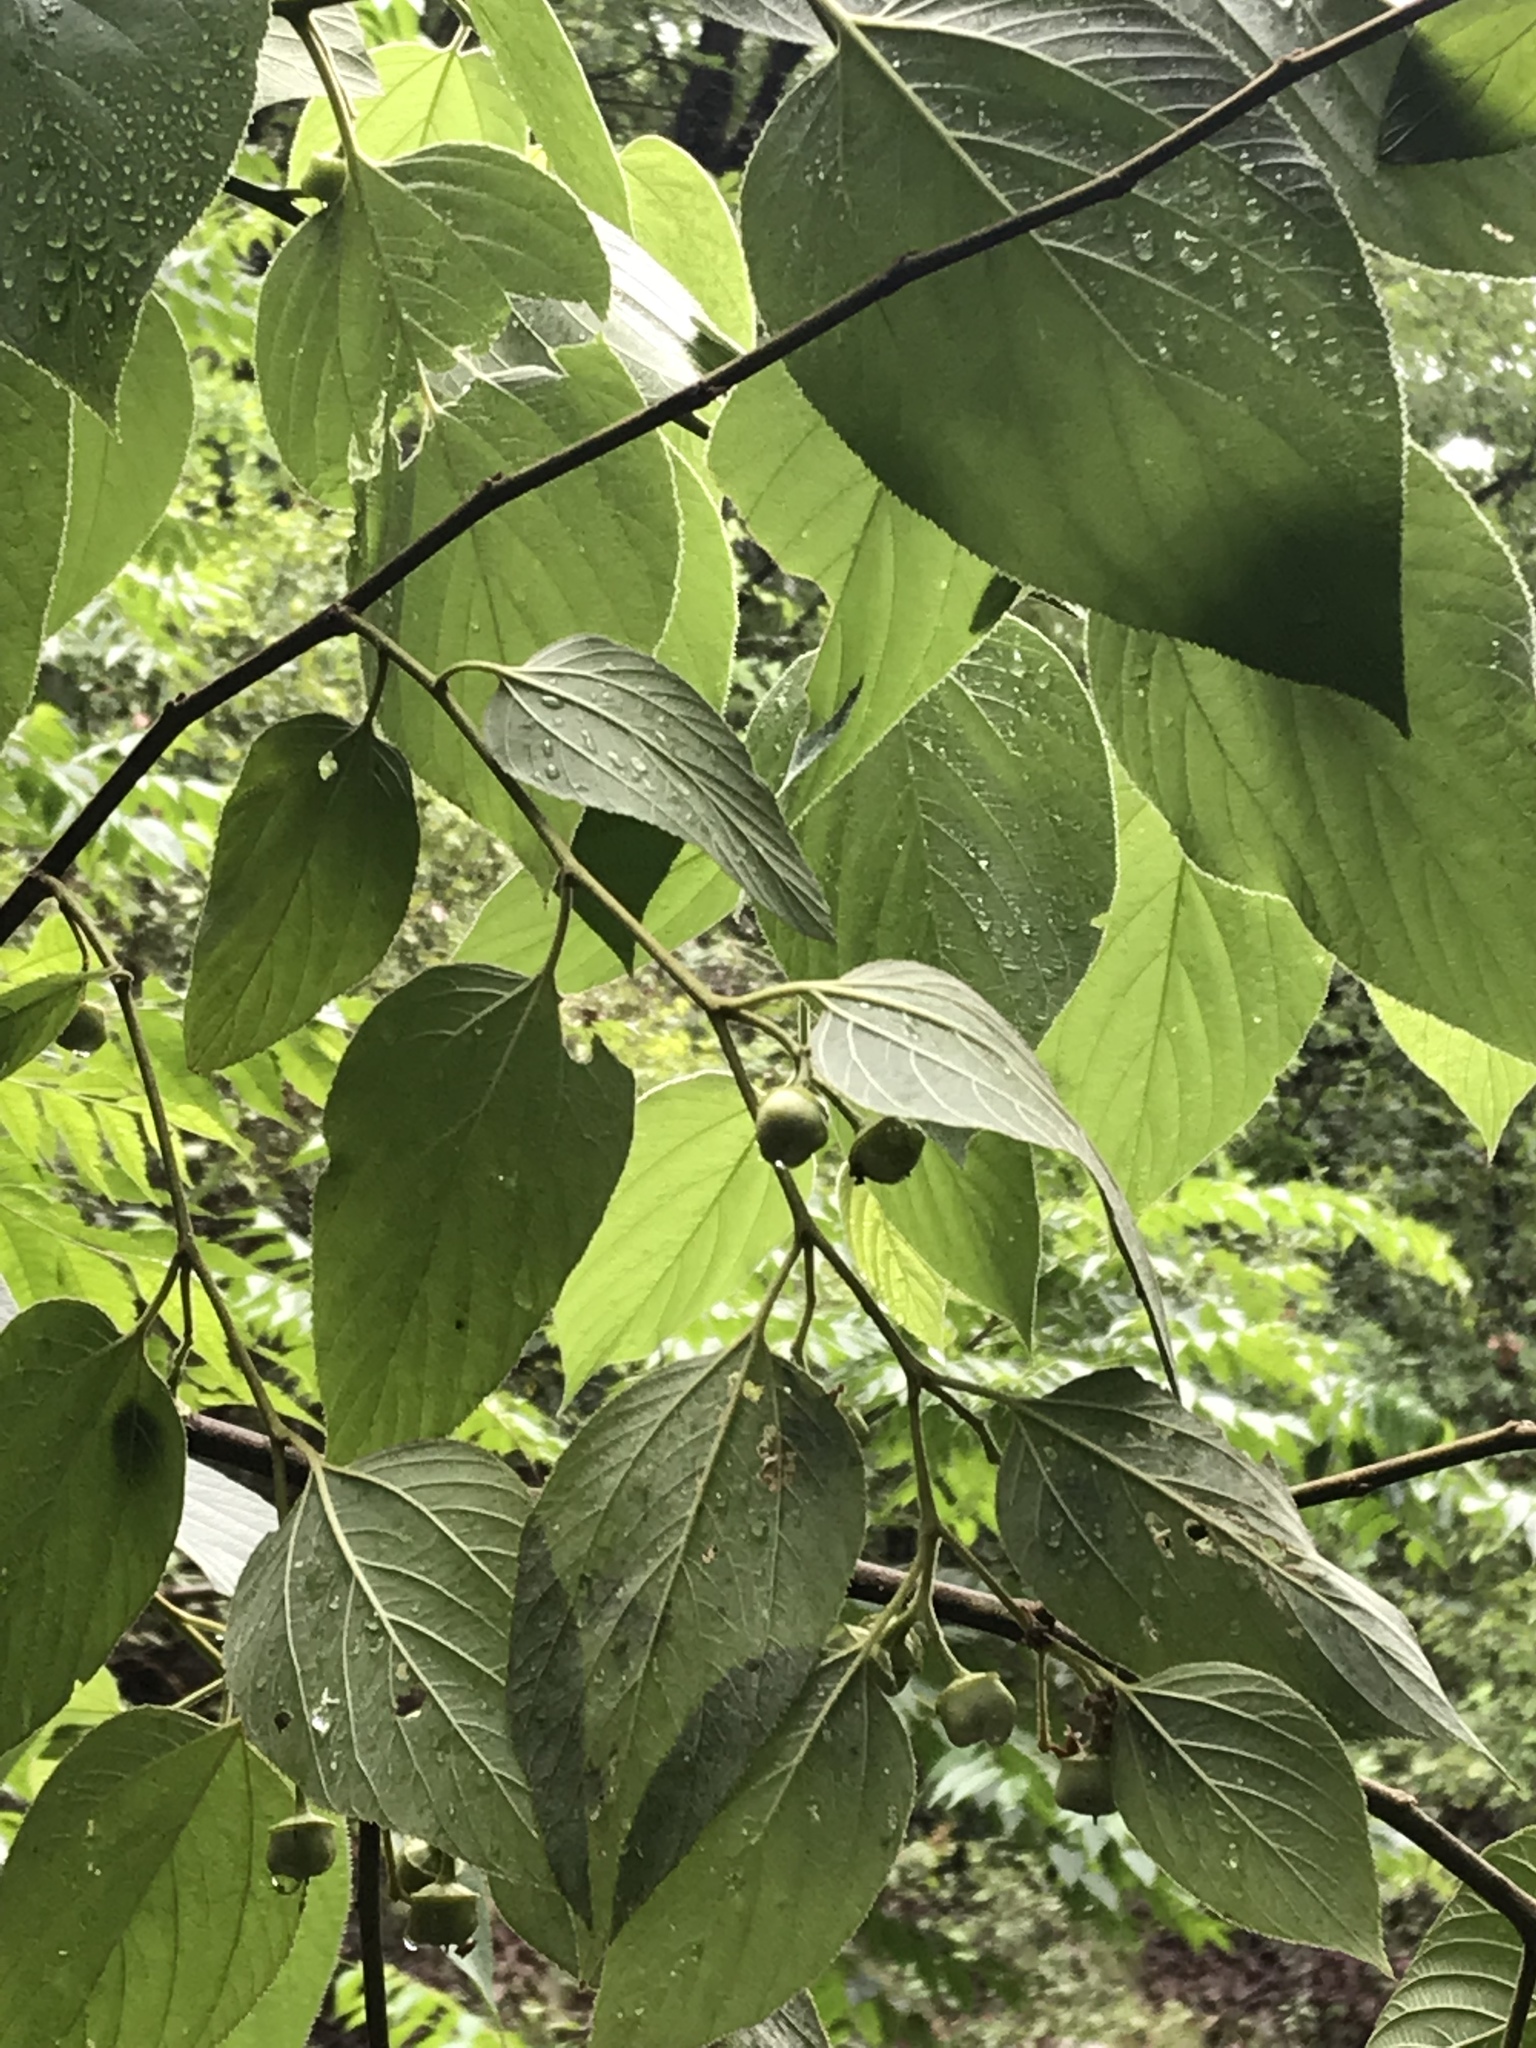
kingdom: Plantae
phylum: Tracheophyta
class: Magnoliopsida
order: Rosales
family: Rhamnaceae
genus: Colubrina
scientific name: Colubrina greggii
